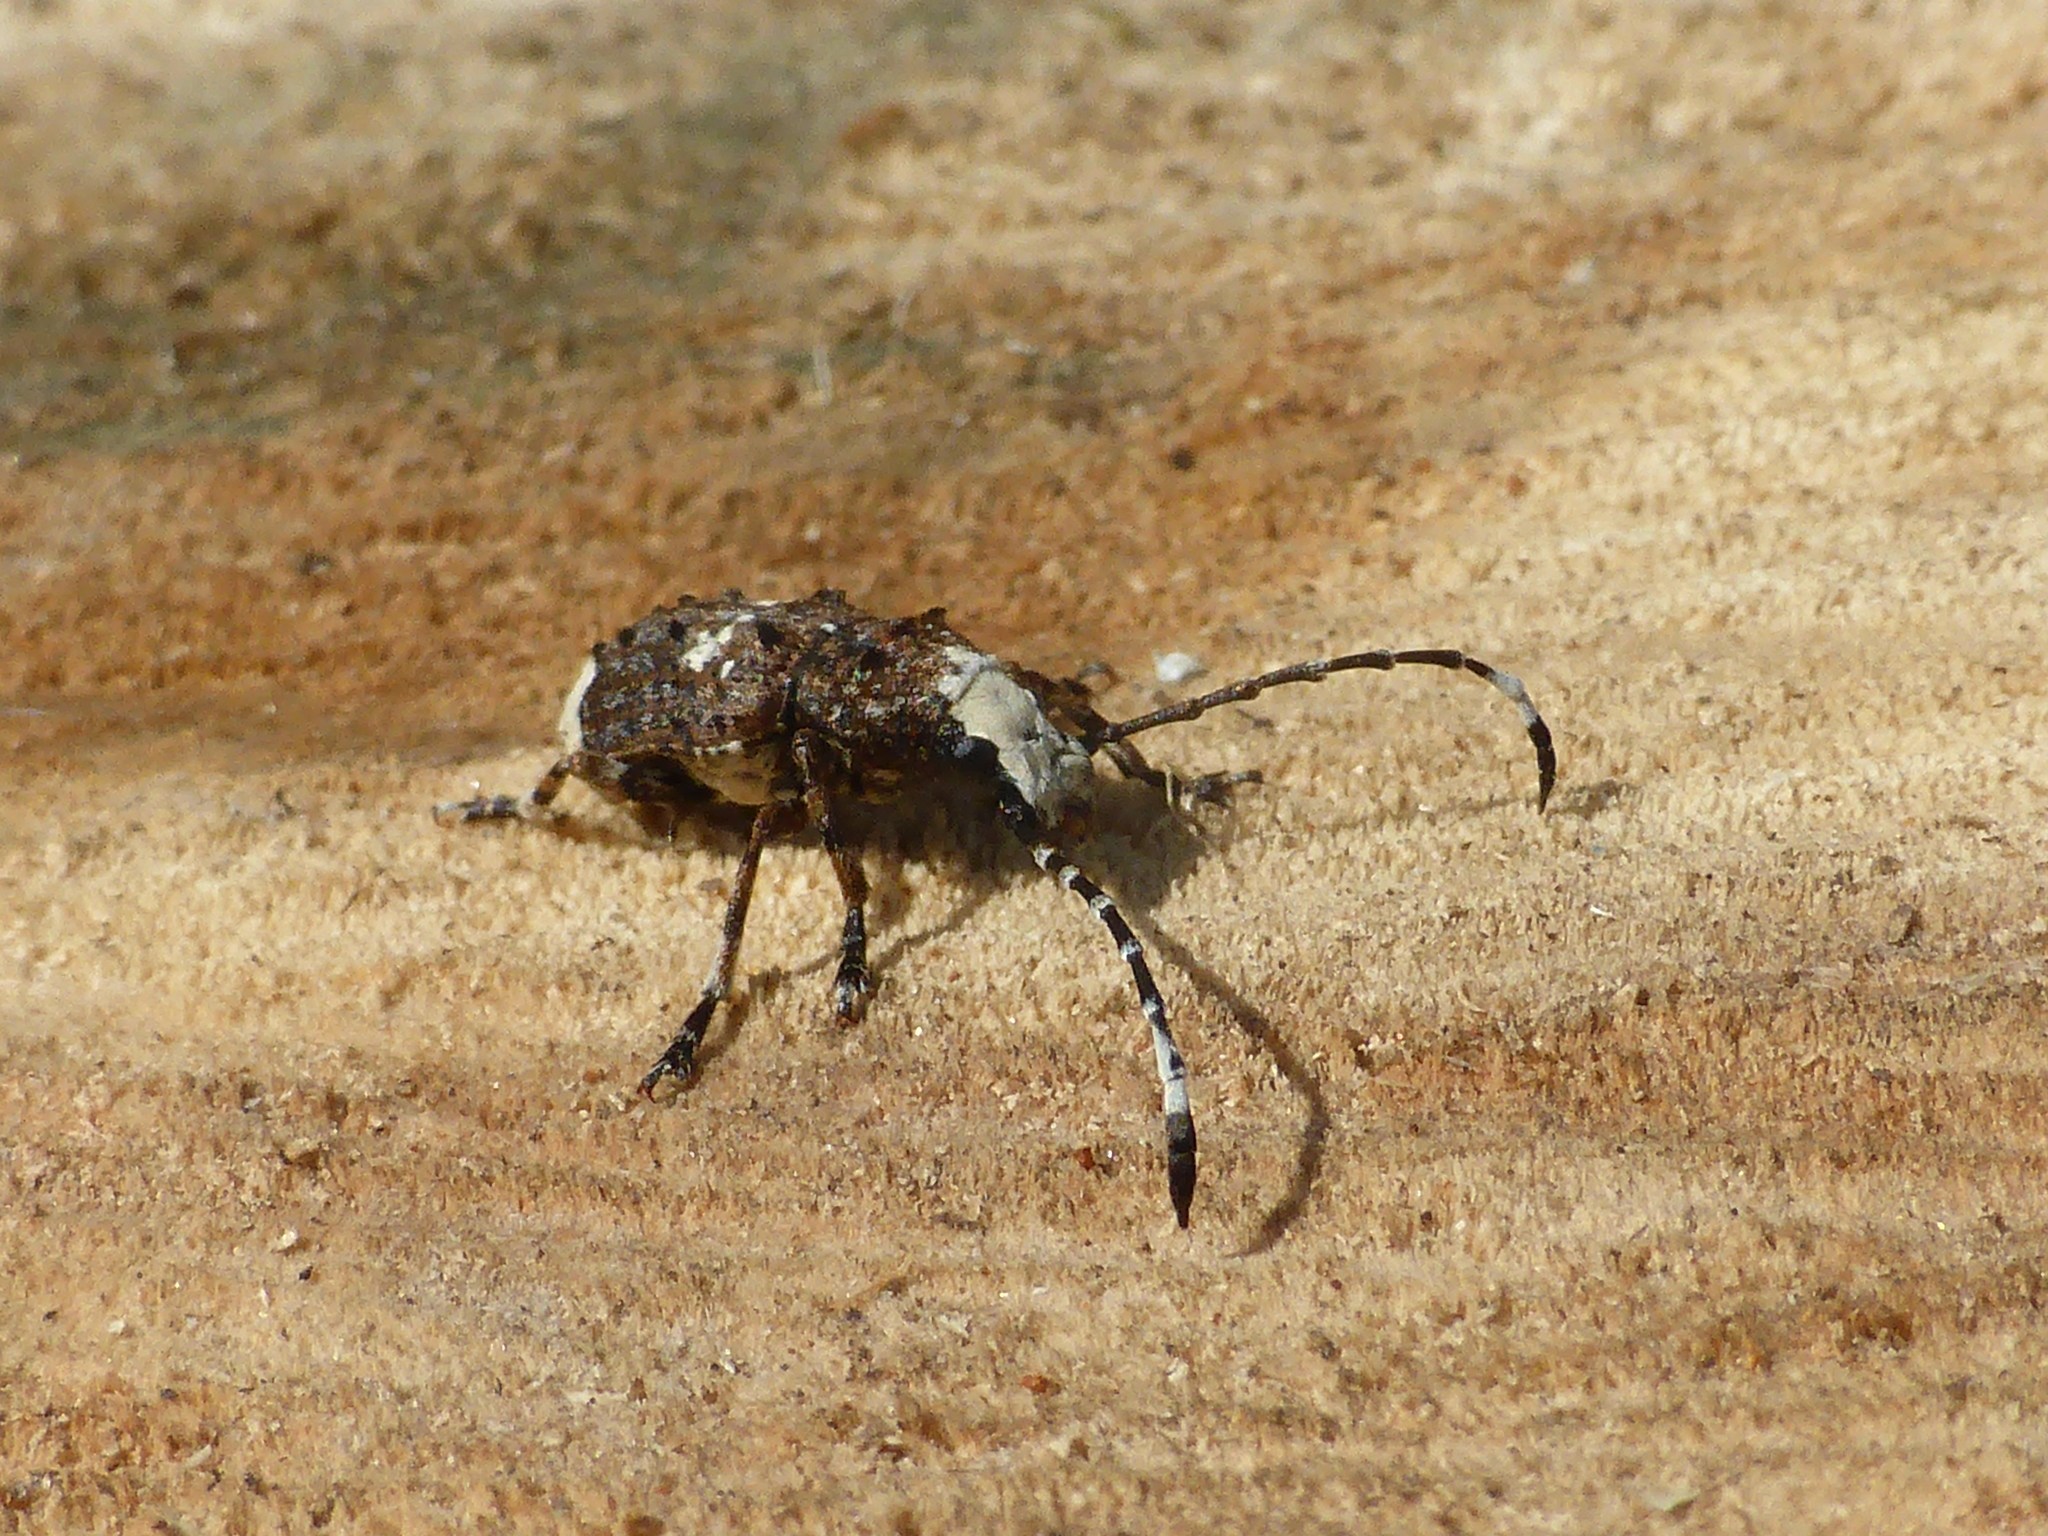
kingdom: Animalia
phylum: Arthropoda
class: Insecta
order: Coleoptera
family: Anthribidae
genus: Platystomos
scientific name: Platystomos albinus
